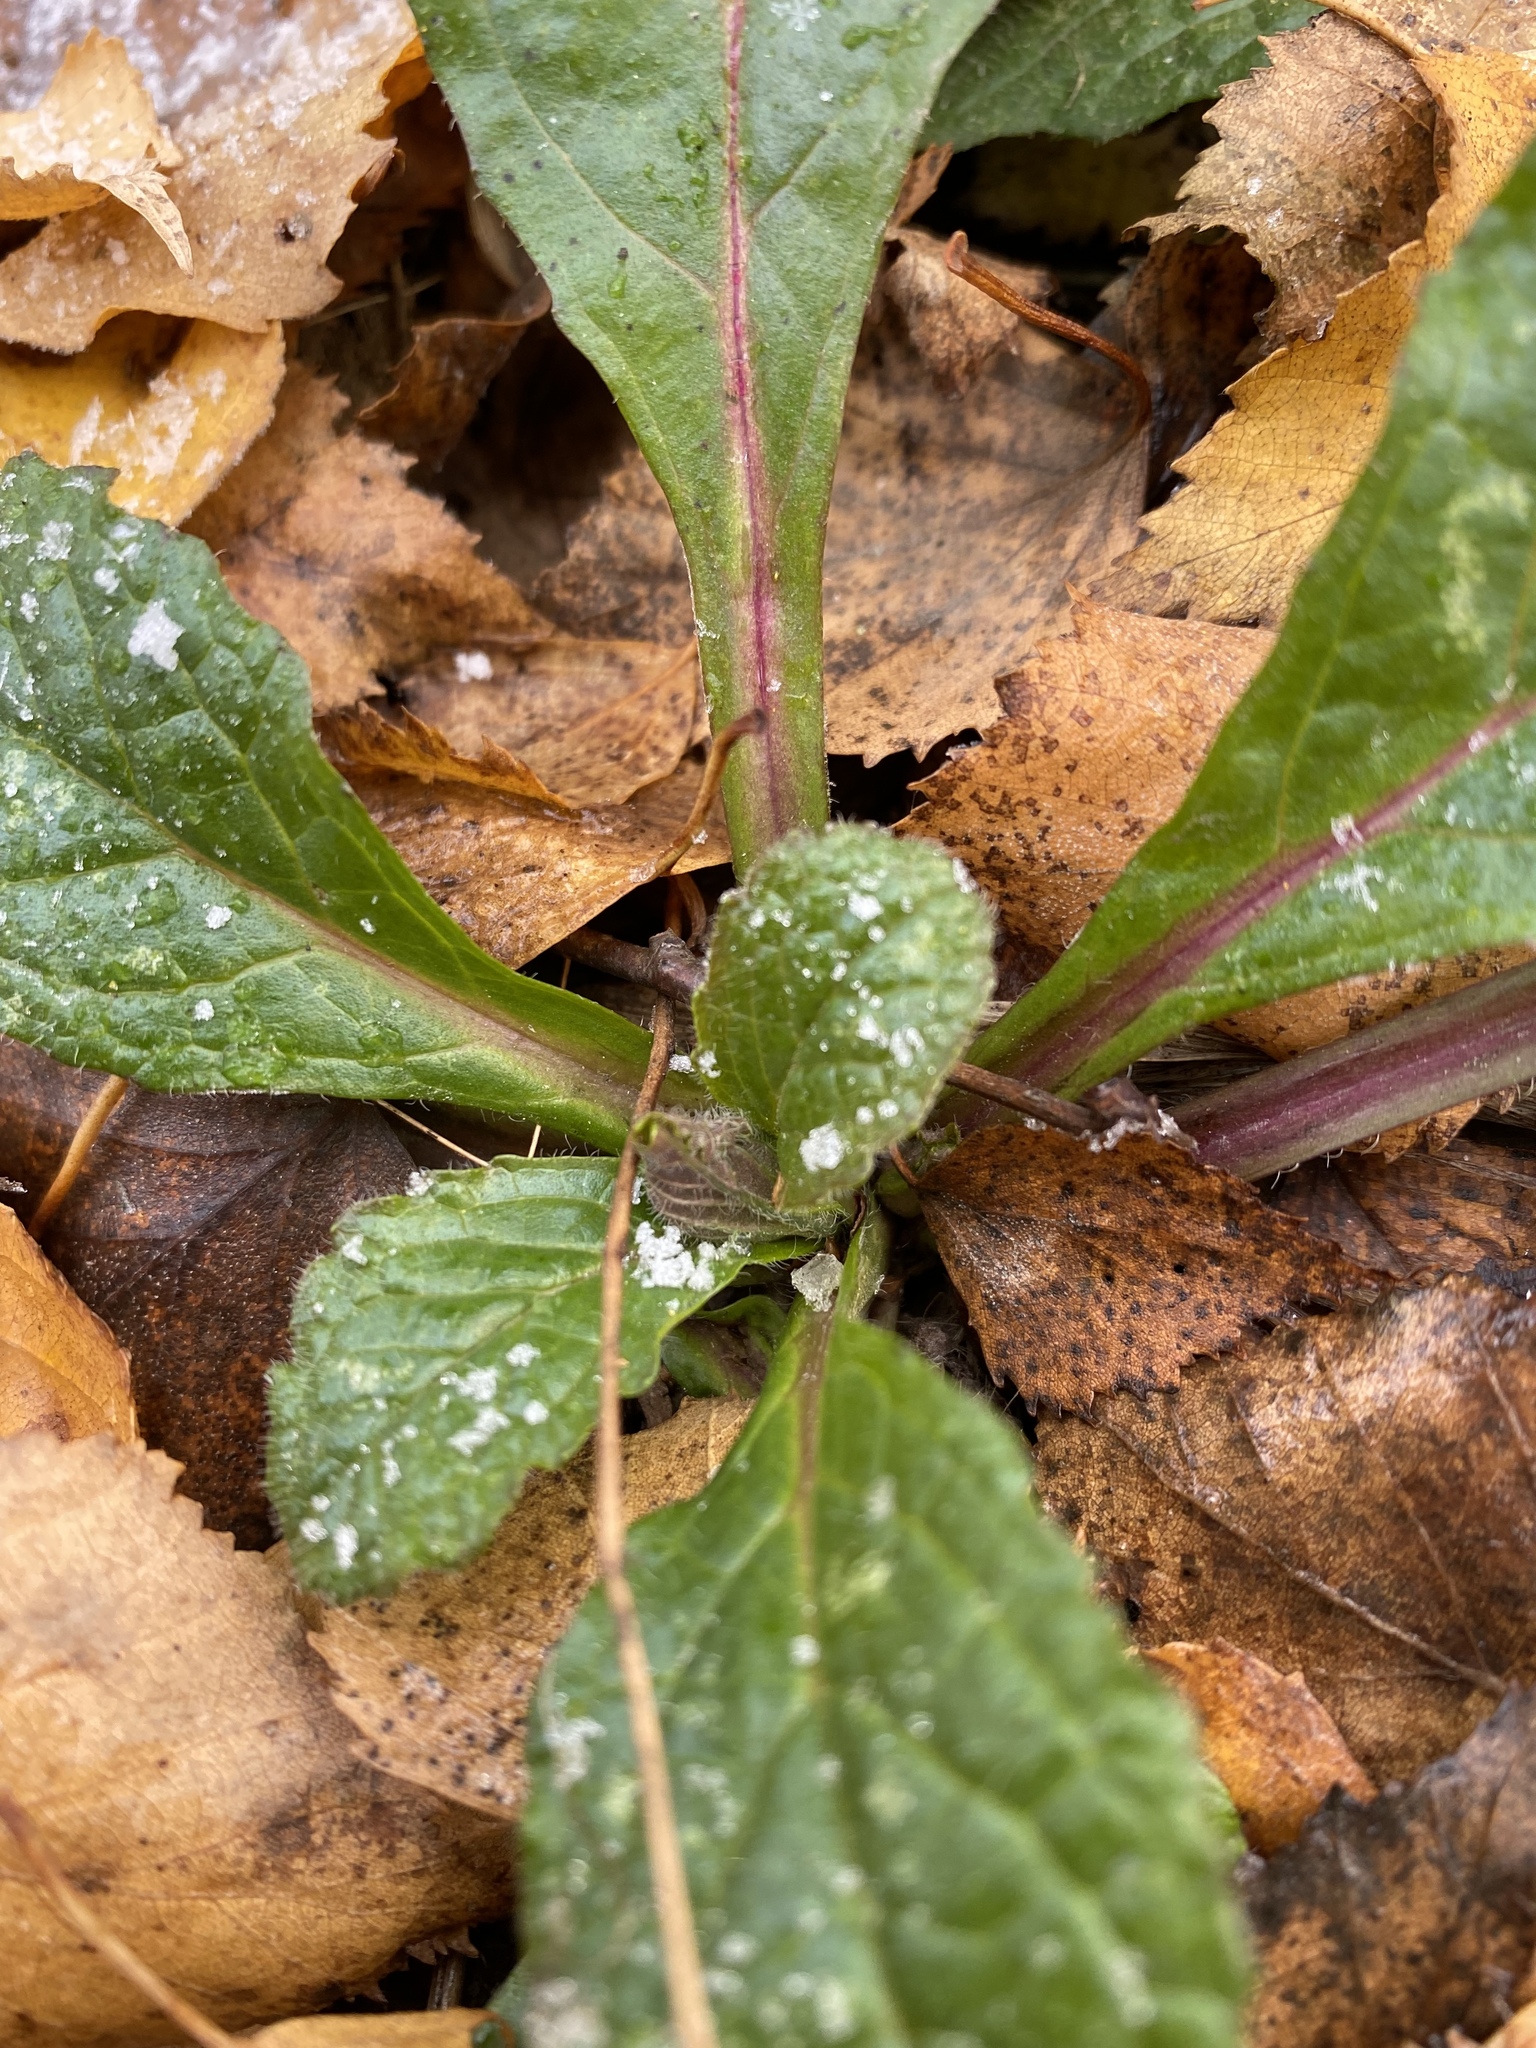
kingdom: Plantae
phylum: Tracheophyta
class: Magnoliopsida
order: Lamiales
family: Lamiaceae
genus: Ajuga
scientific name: Ajuga reptans
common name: Bugle
